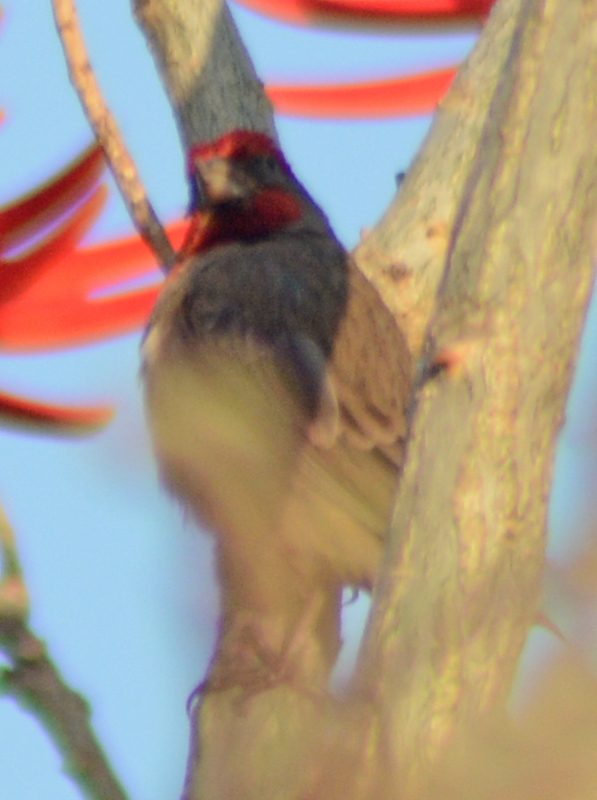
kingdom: Animalia
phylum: Chordata
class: Aves
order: Passeriformes
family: Fringillidae
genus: Haemorhous
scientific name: Haemorhous mexicanus
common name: House finch
